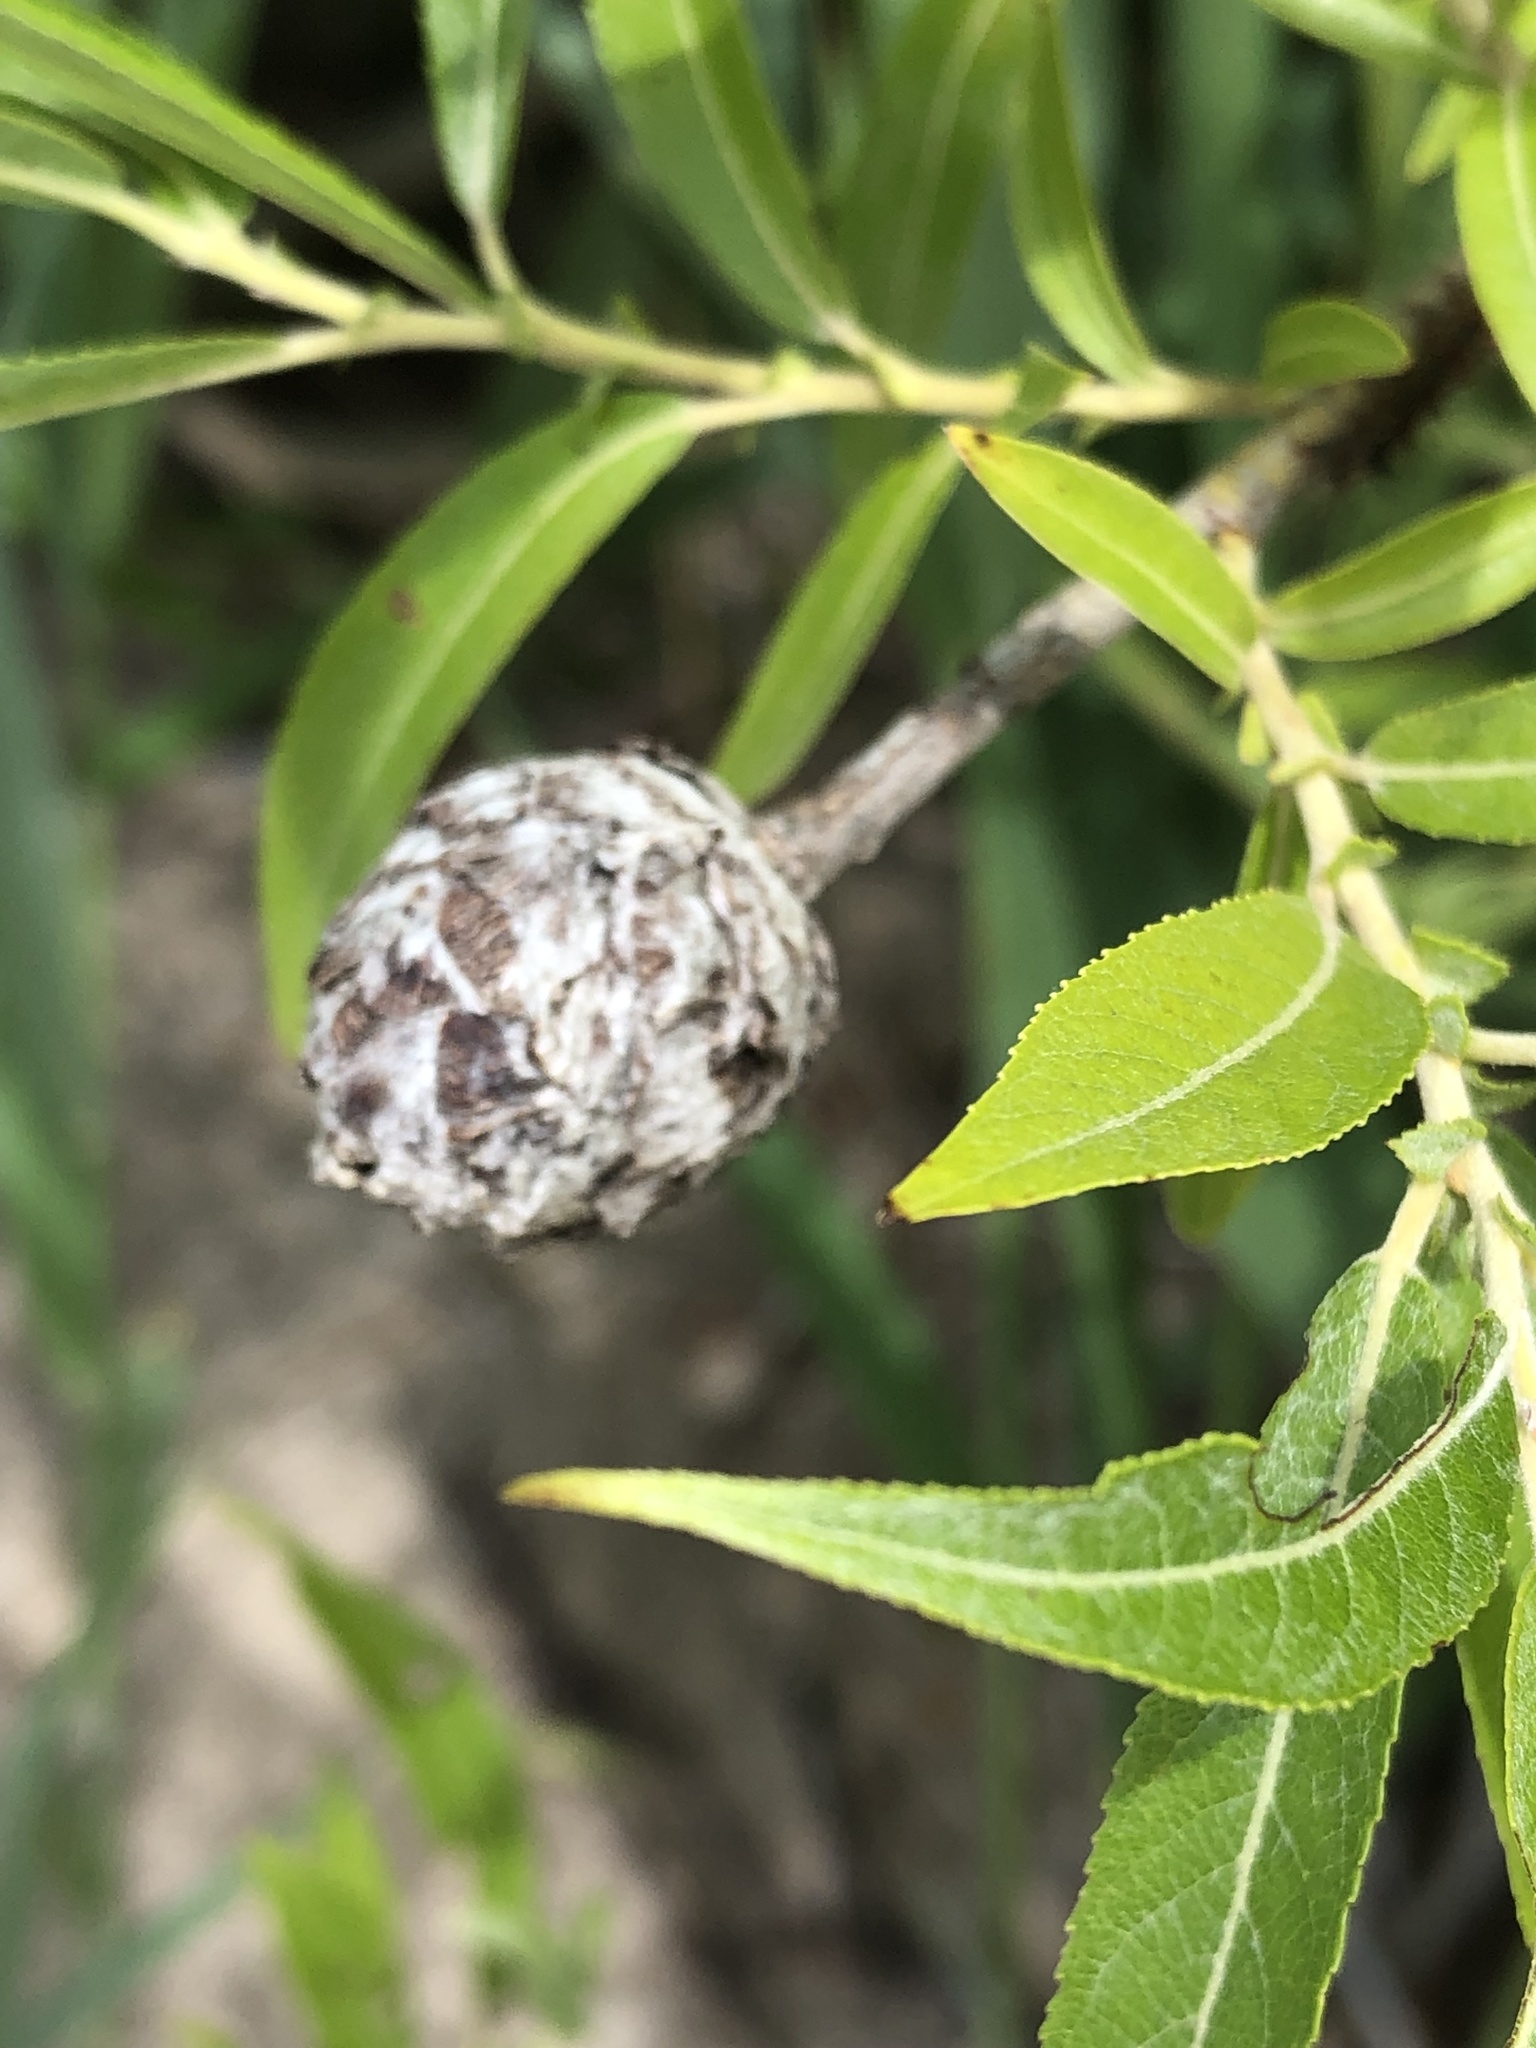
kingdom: Animalia
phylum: Arthropoda
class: Insecta
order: Diptera
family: Cecidomyiidae
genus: Rabdophaga
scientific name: Rabdophaga strobiloides
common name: Willow pinecone gall midge
